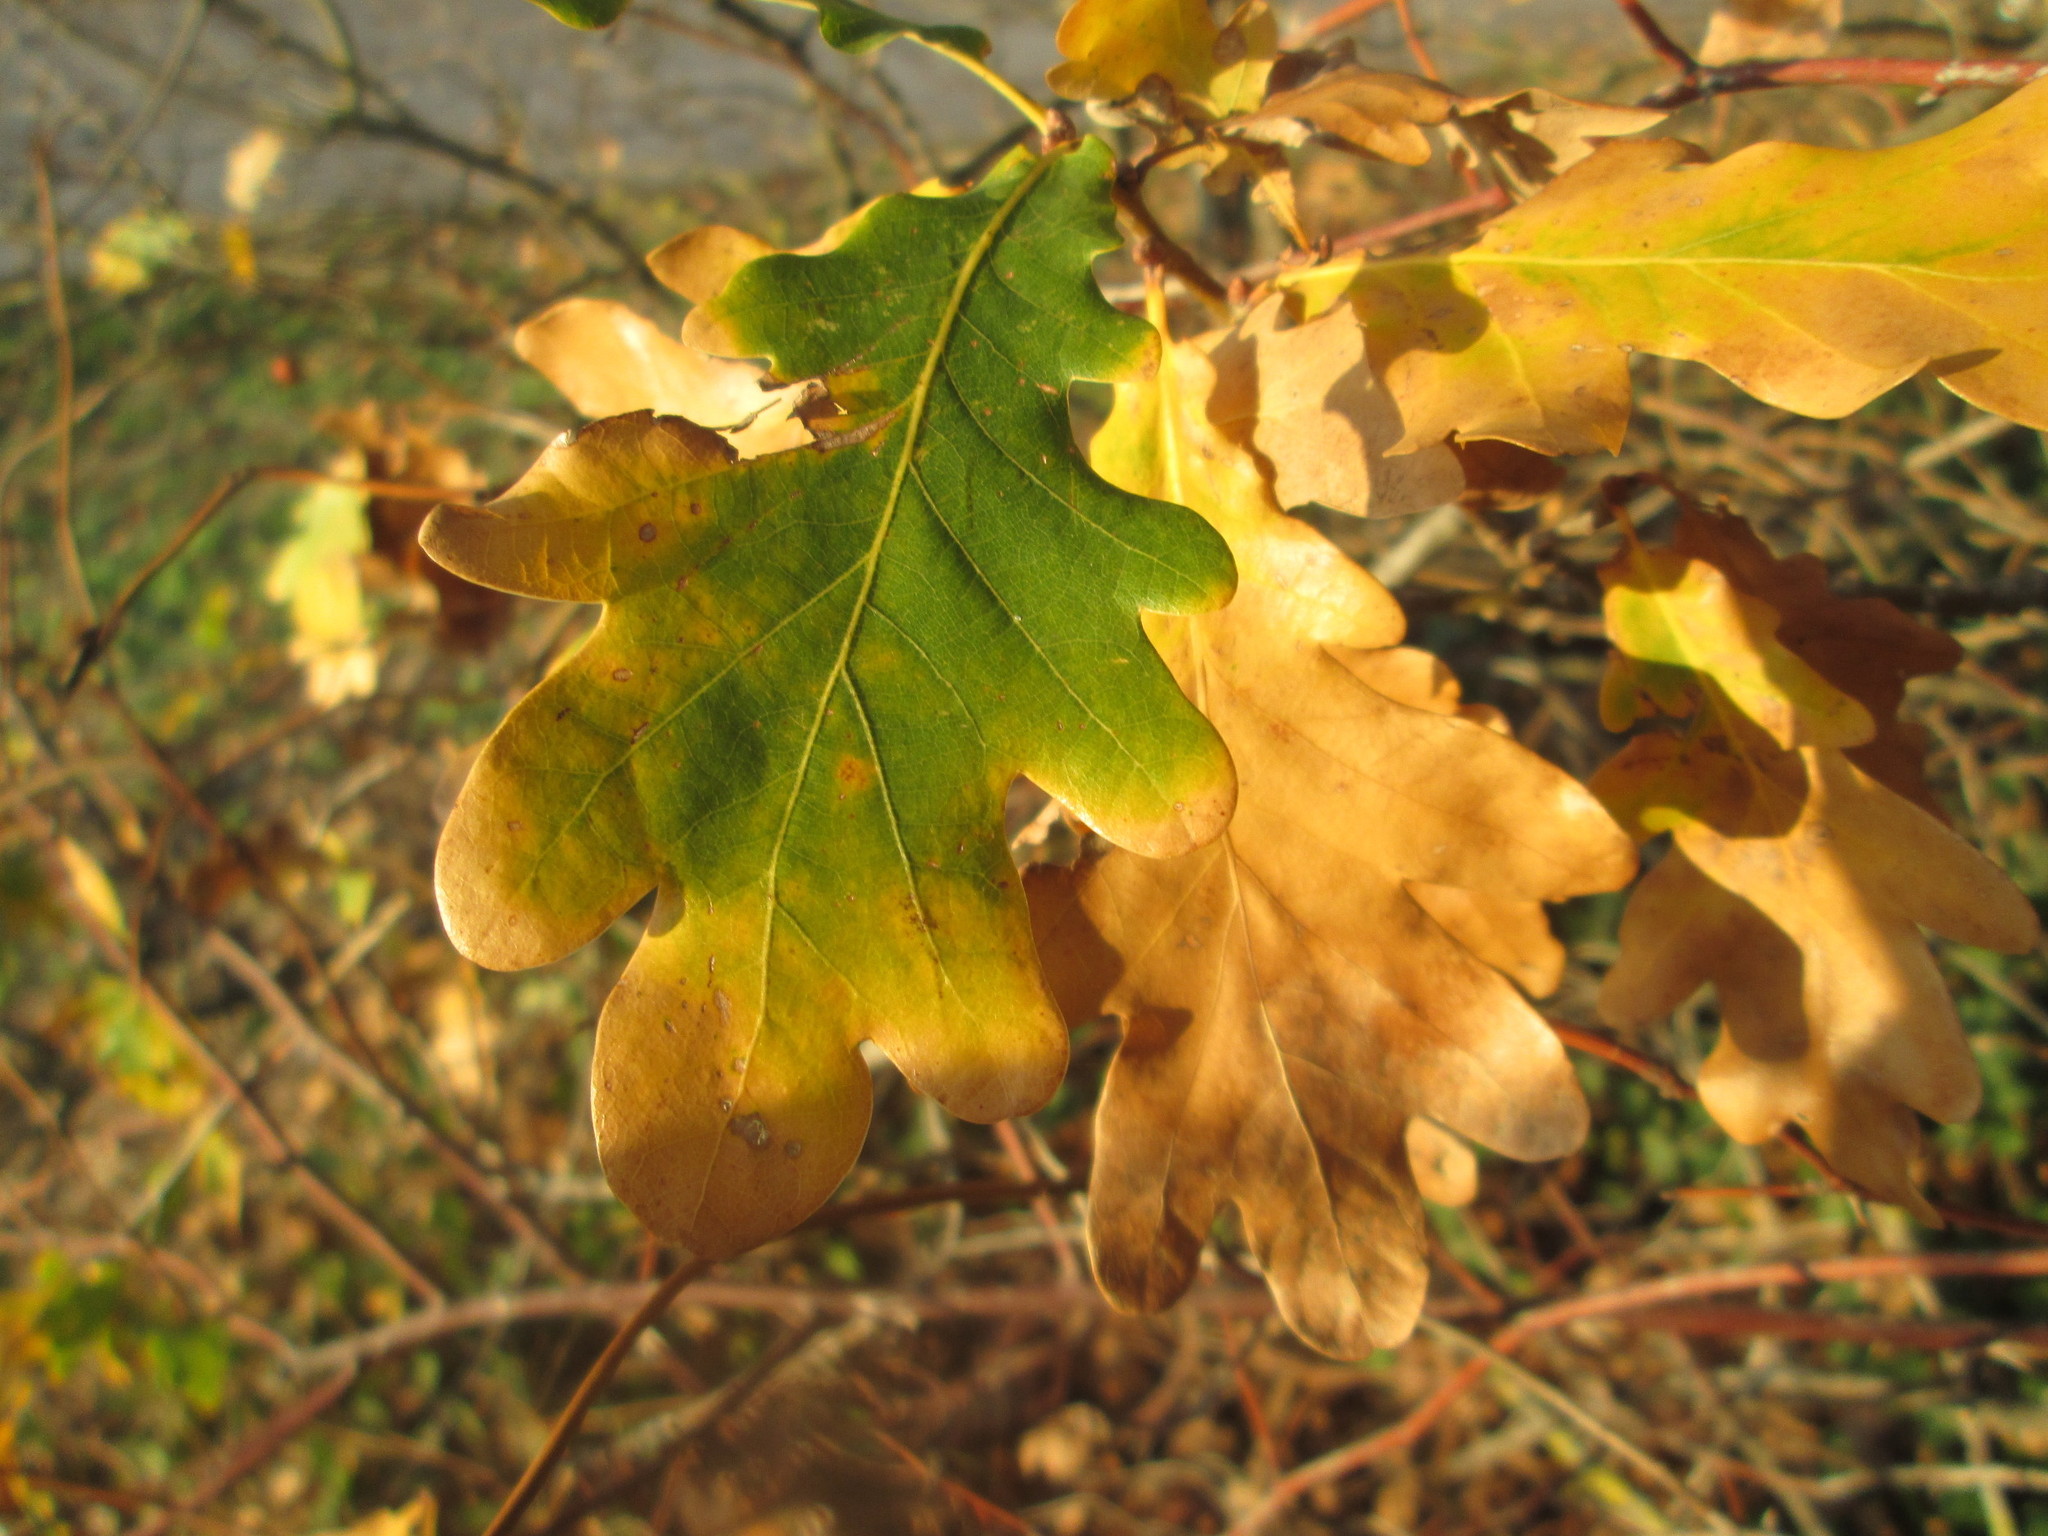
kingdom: Plantae
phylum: Tracheophyta
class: Magnoliopsida
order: Fagales
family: Fagaceae
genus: Quercus
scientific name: Quercus robur
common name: Pedunculate oak
